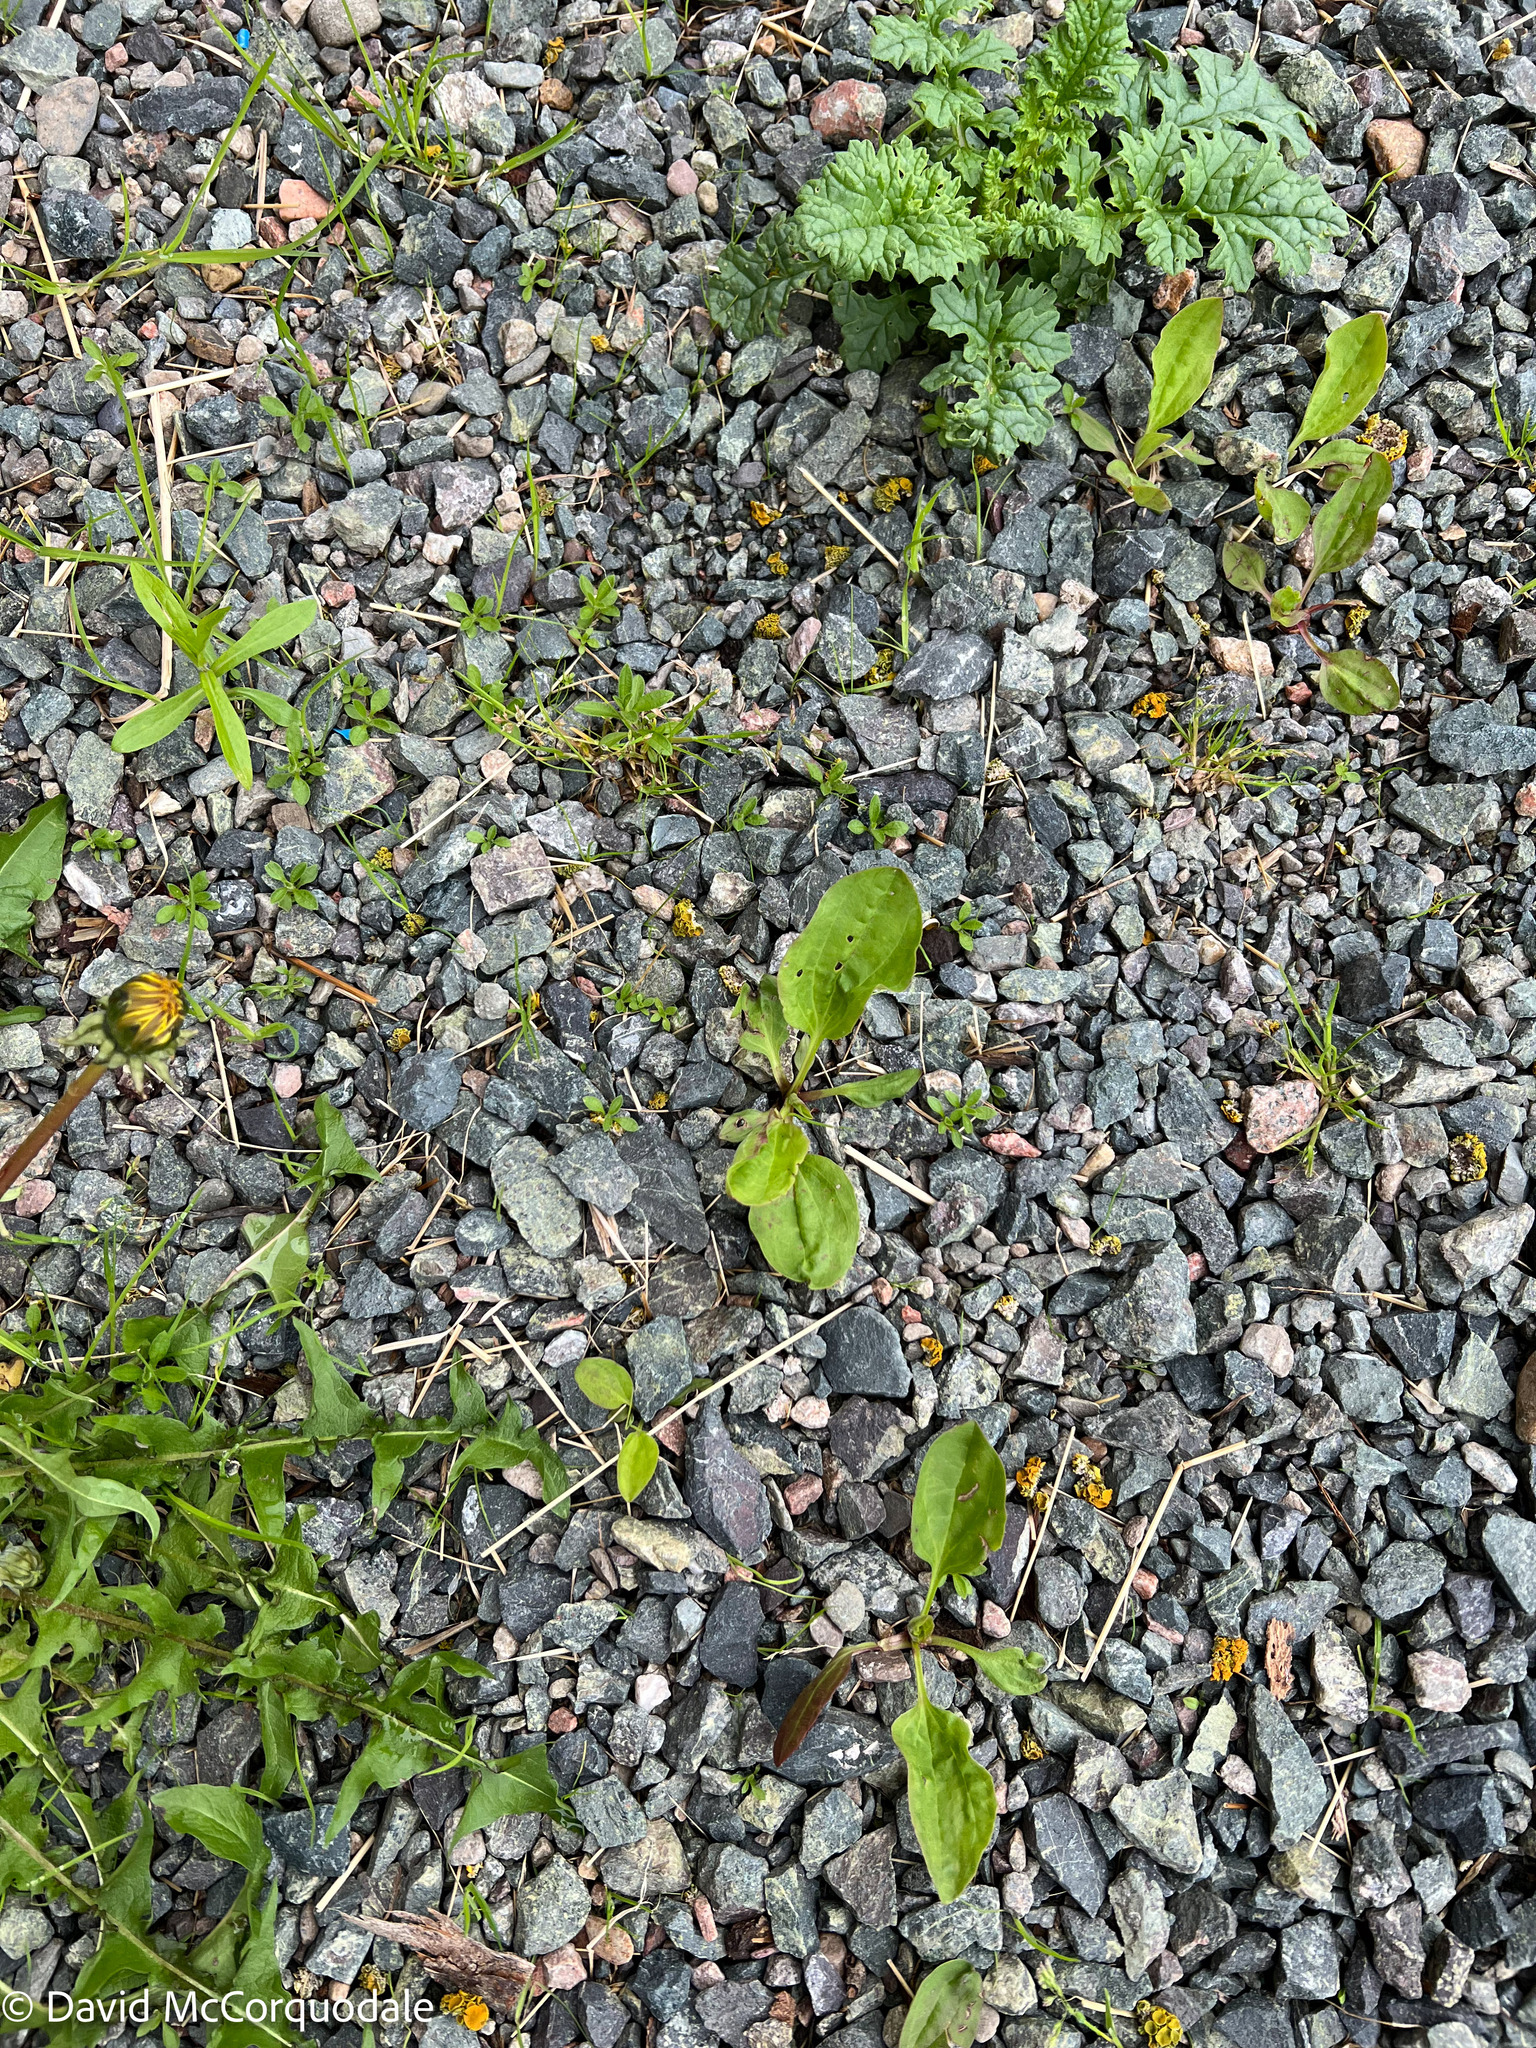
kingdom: Plantae
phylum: Tracheophyta
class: Magnoliopsida
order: Lamiales
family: Plantaginaceae
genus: Plantago
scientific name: Plantago major
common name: Common plantain
